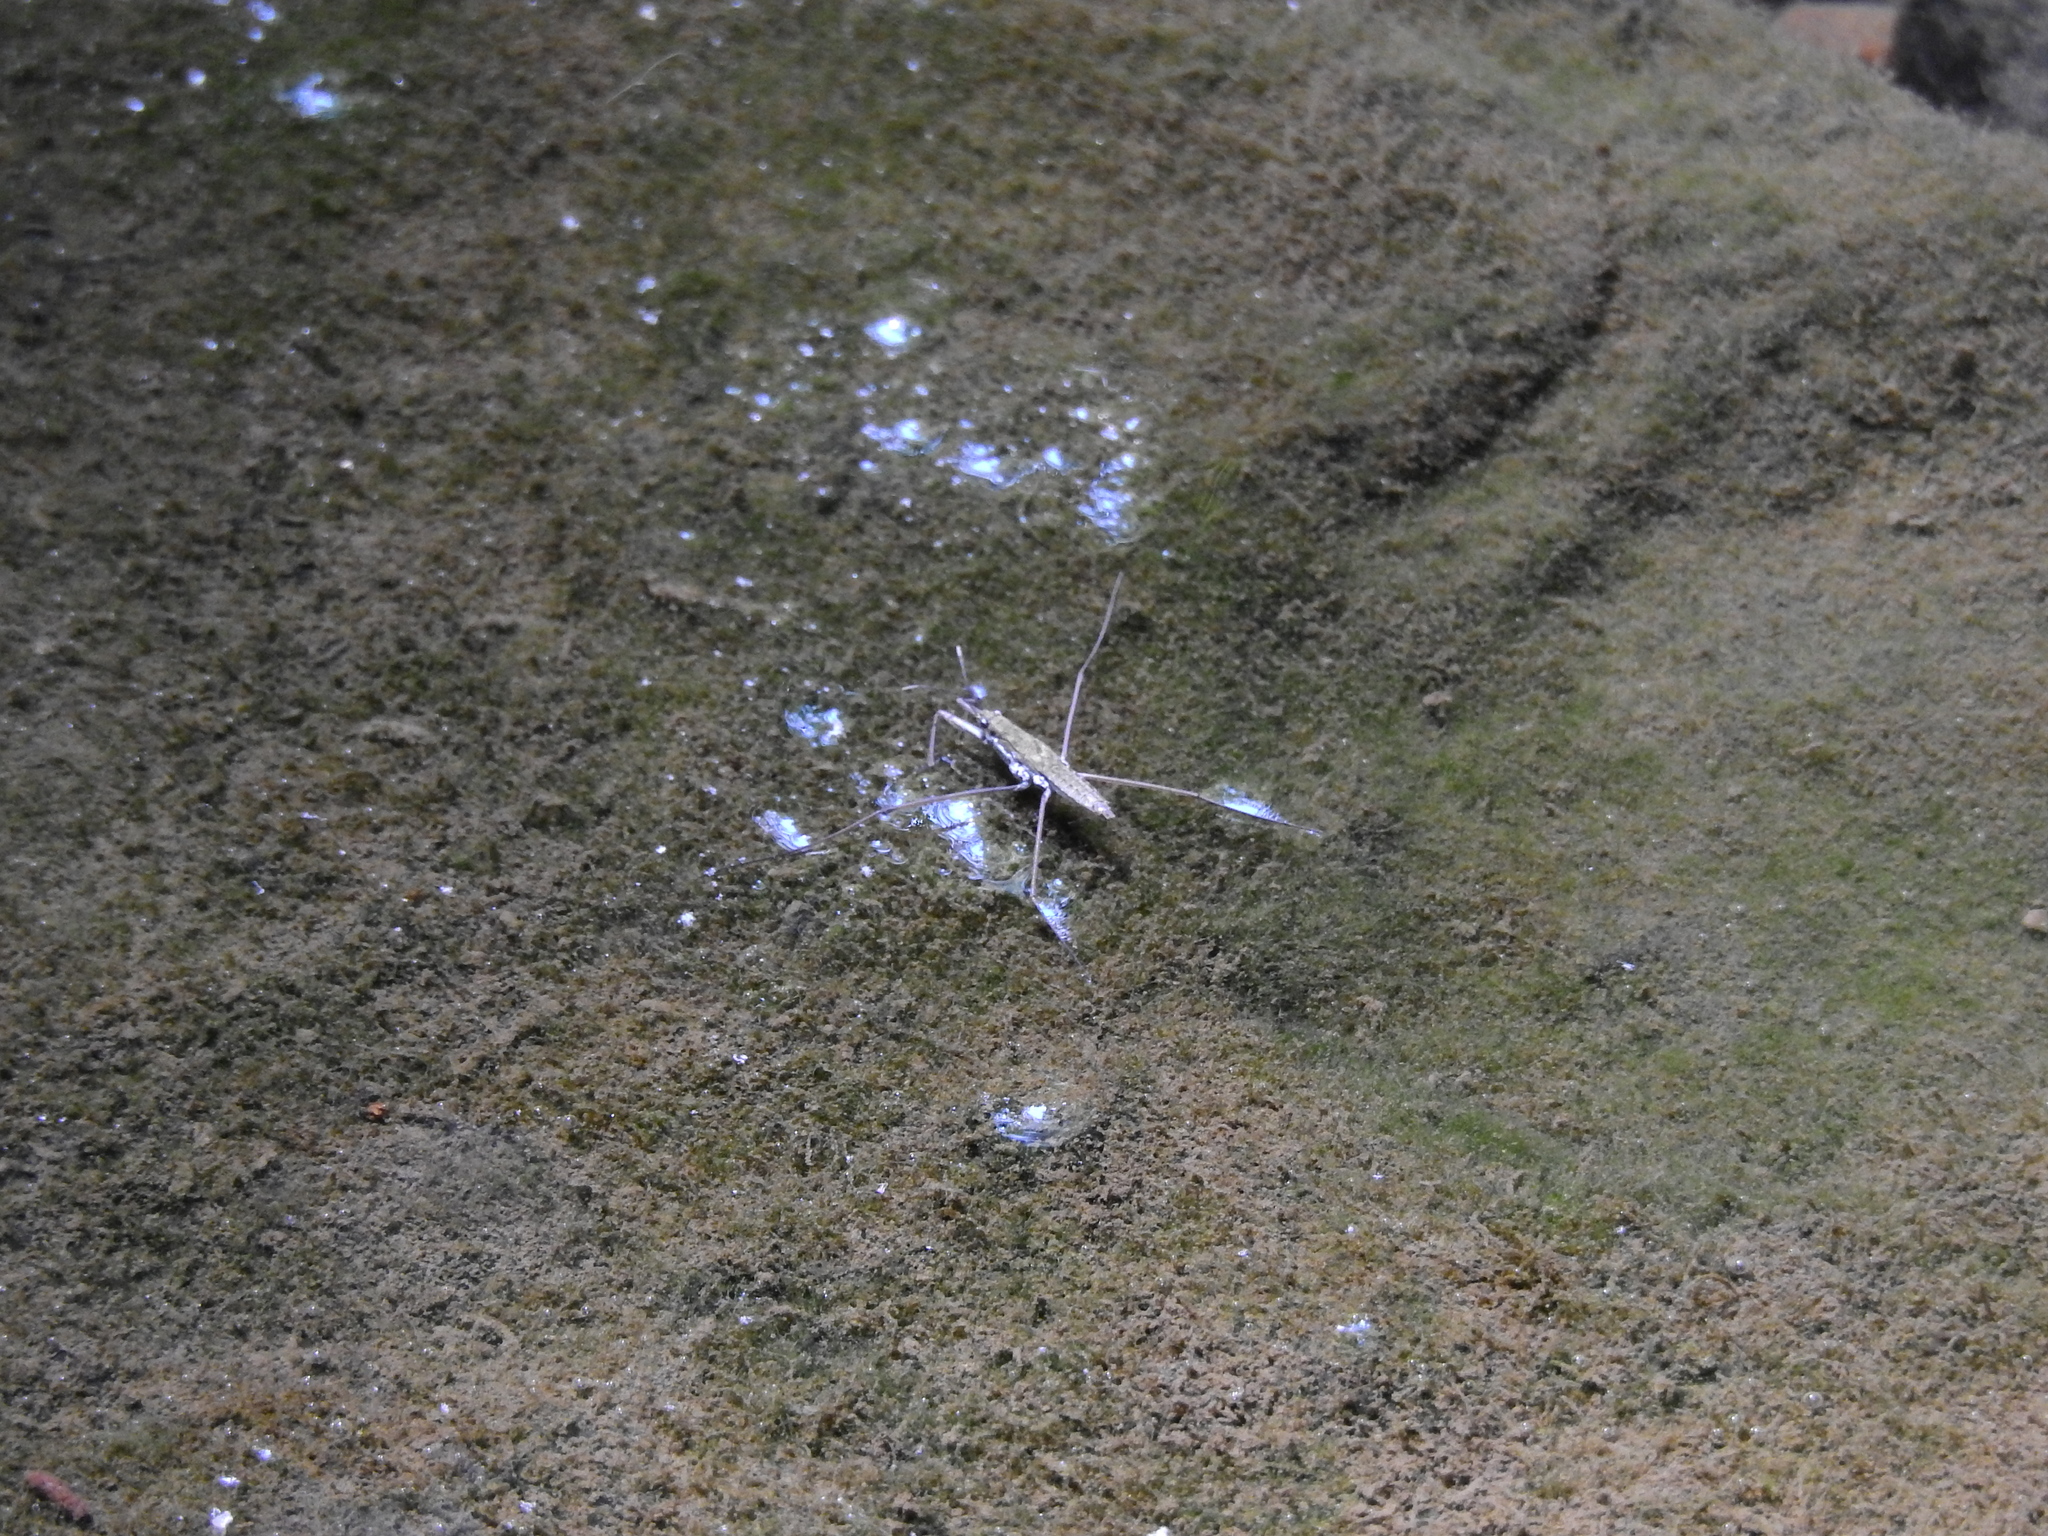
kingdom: Animalia
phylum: Arthropoda
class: Insecta
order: Hemiptera
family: Gerridae
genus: Aquarius
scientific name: Aquarius remigis
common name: Common water strider
